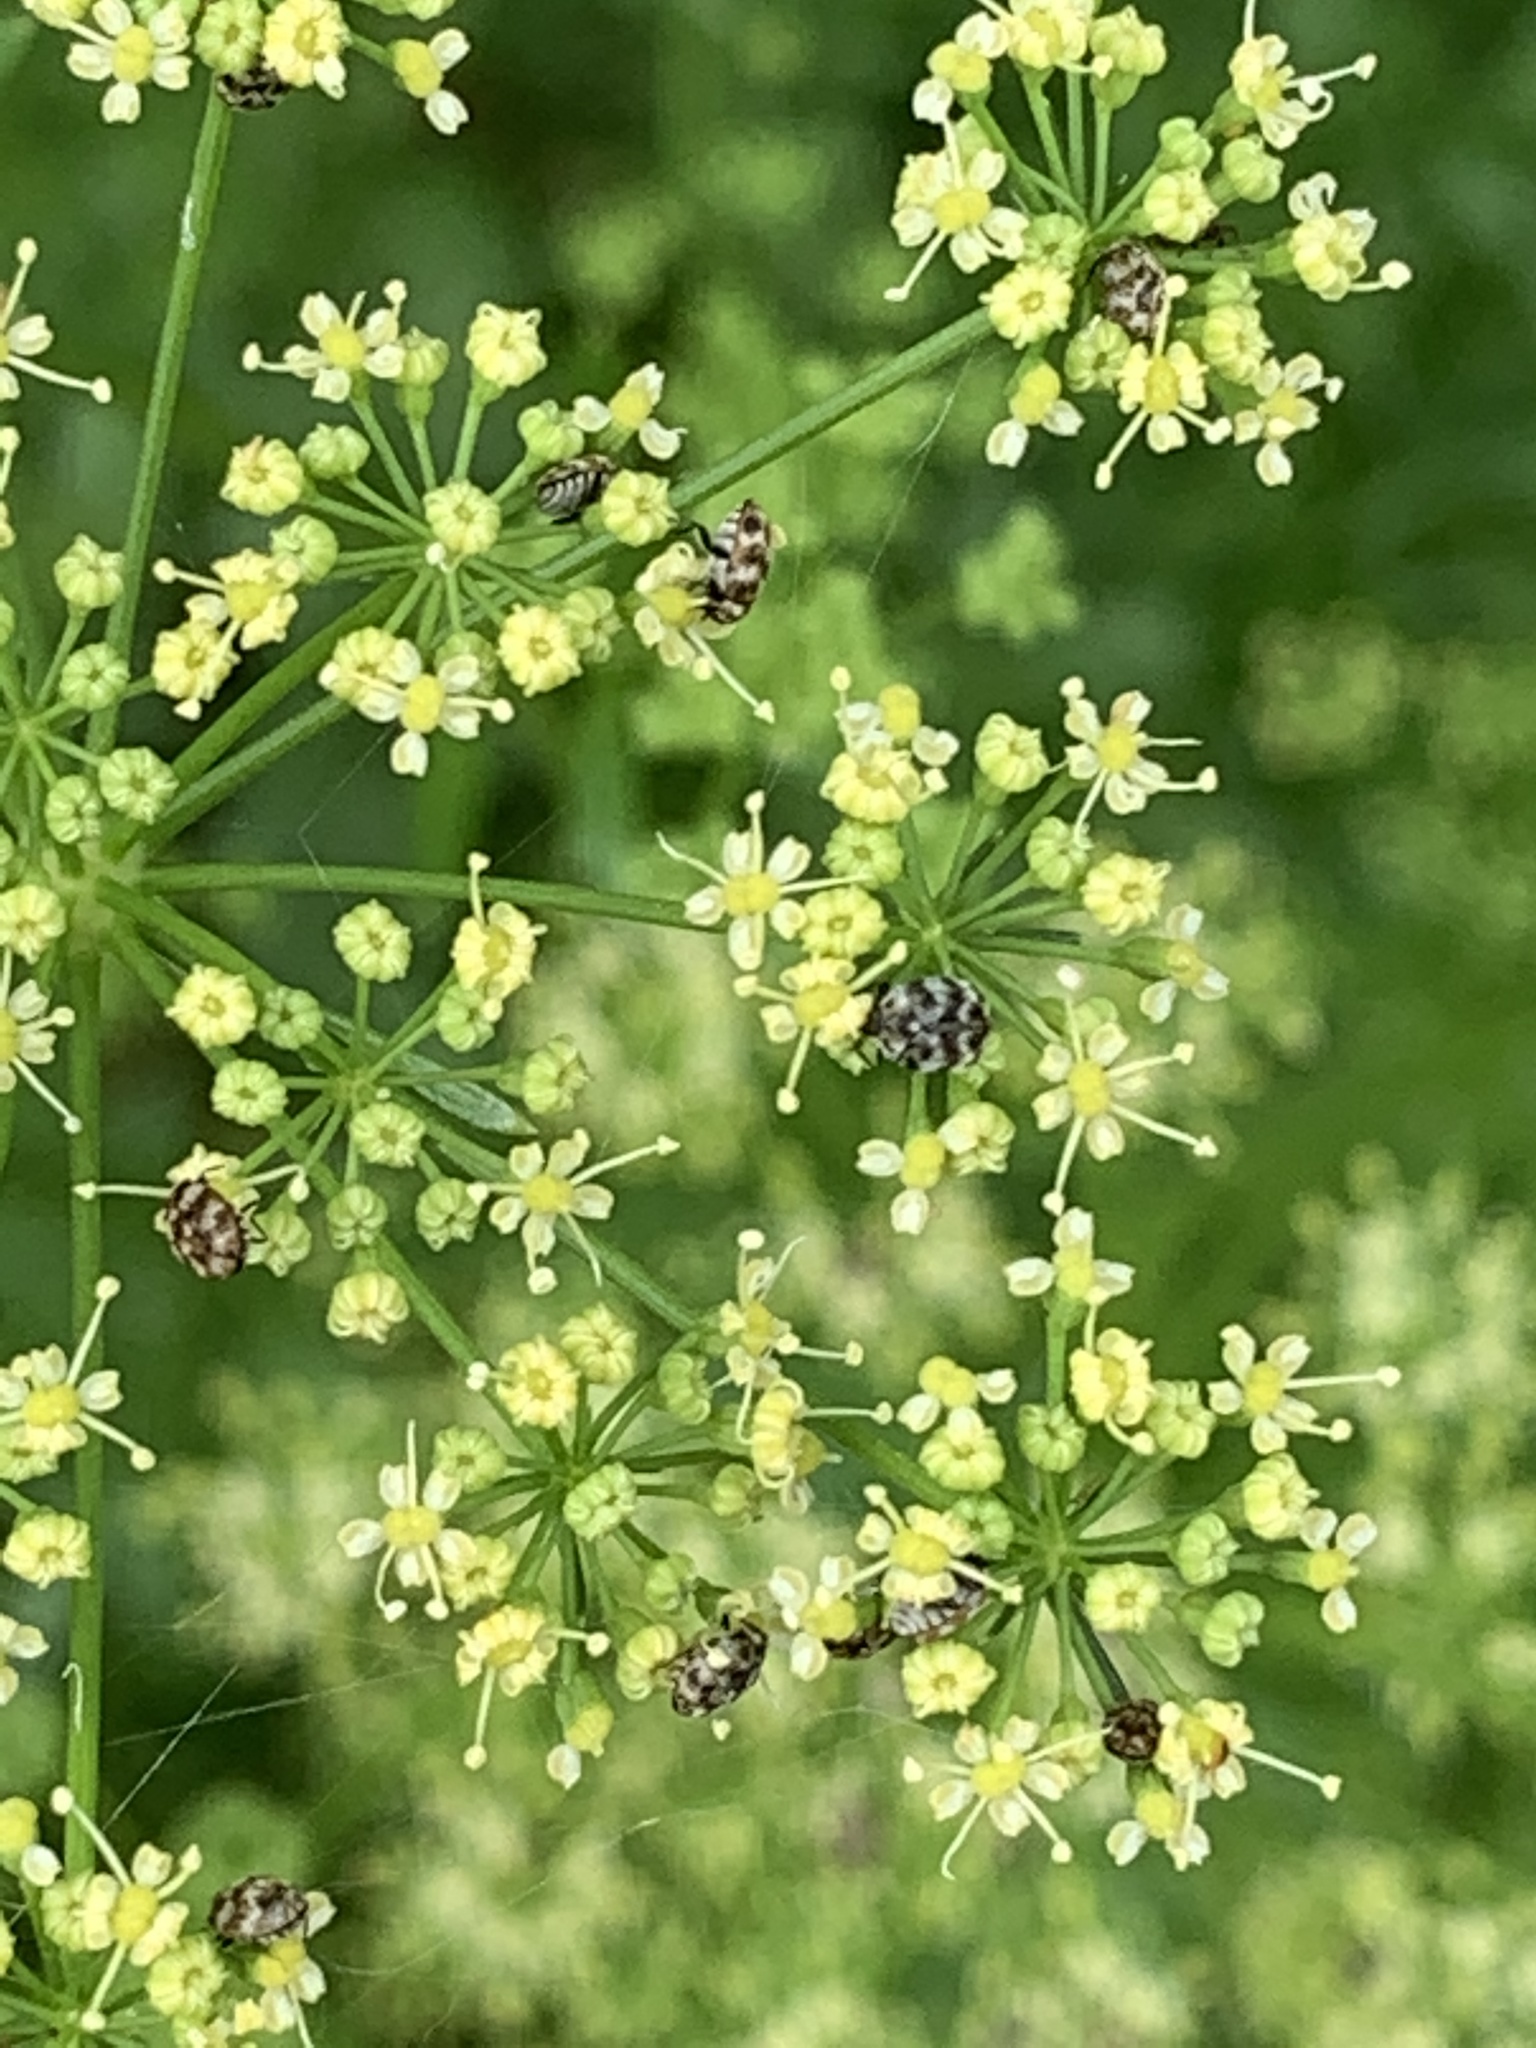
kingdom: Animalia
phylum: Arthropoda
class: Insecta
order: Coleoptera
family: Dermestidae
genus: Anthrenus
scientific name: Anthrenus verbasci
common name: Varied carpet beetle
